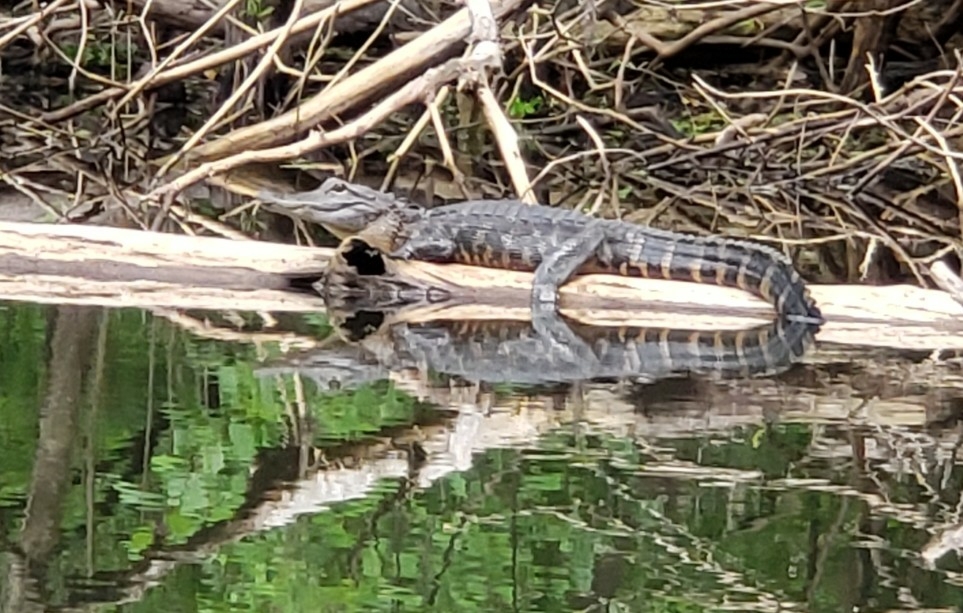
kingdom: Animalia
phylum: Chordata
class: Crocodylia
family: Alligatoridae
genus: Alligator
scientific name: Alligator mississippiensis
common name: American alligator
